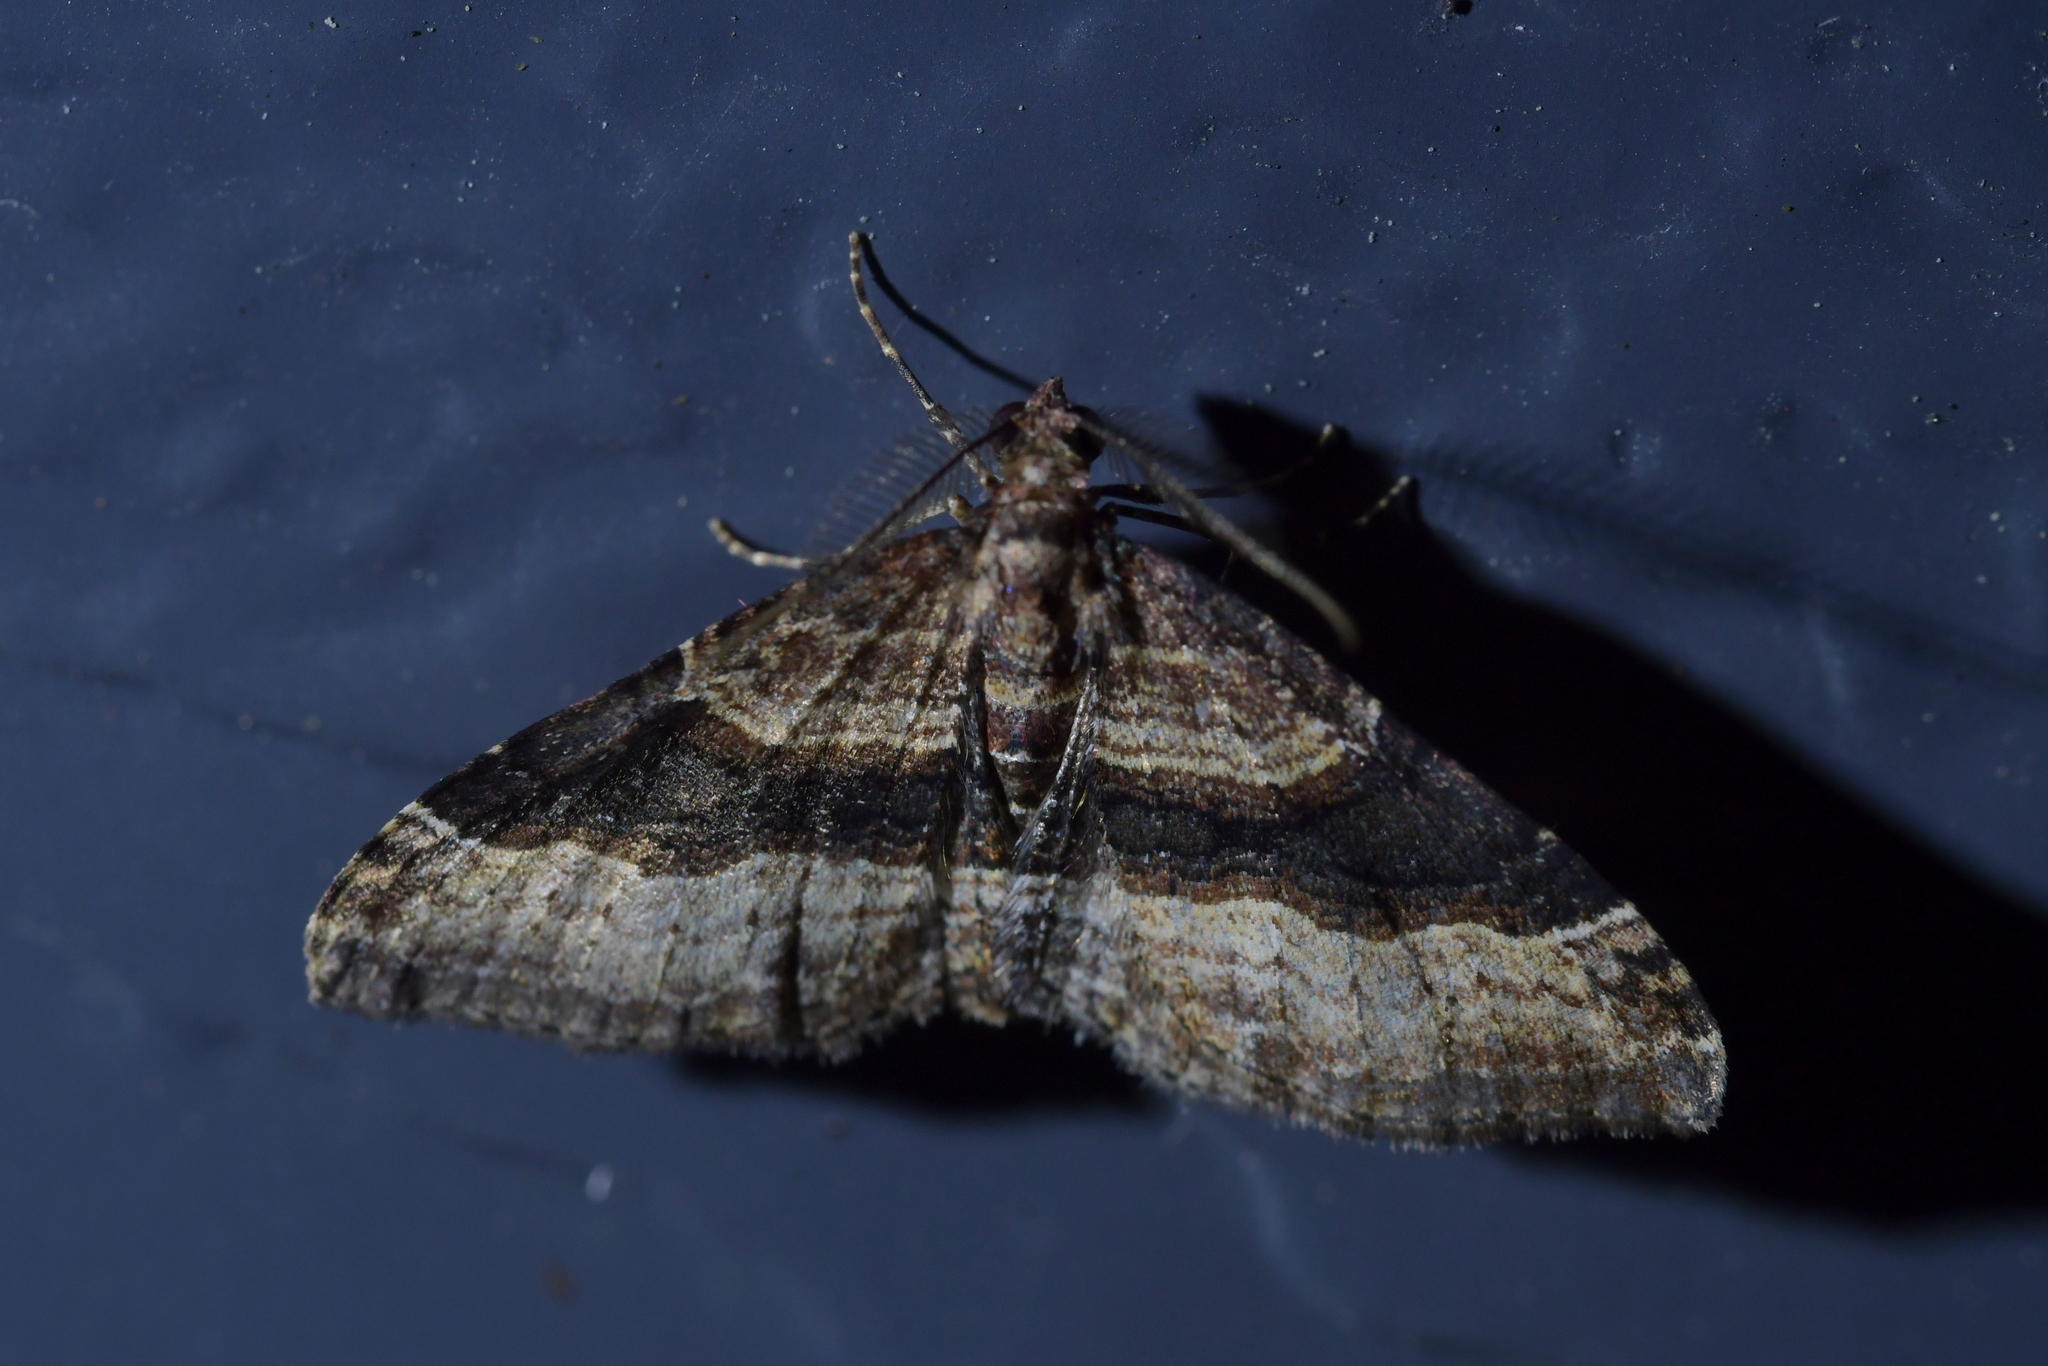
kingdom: Animalia
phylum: Arthropoda
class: Insecta
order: Lepidoptera
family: Geometridae
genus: Epyaxa
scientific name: Epyaxa lucidata
